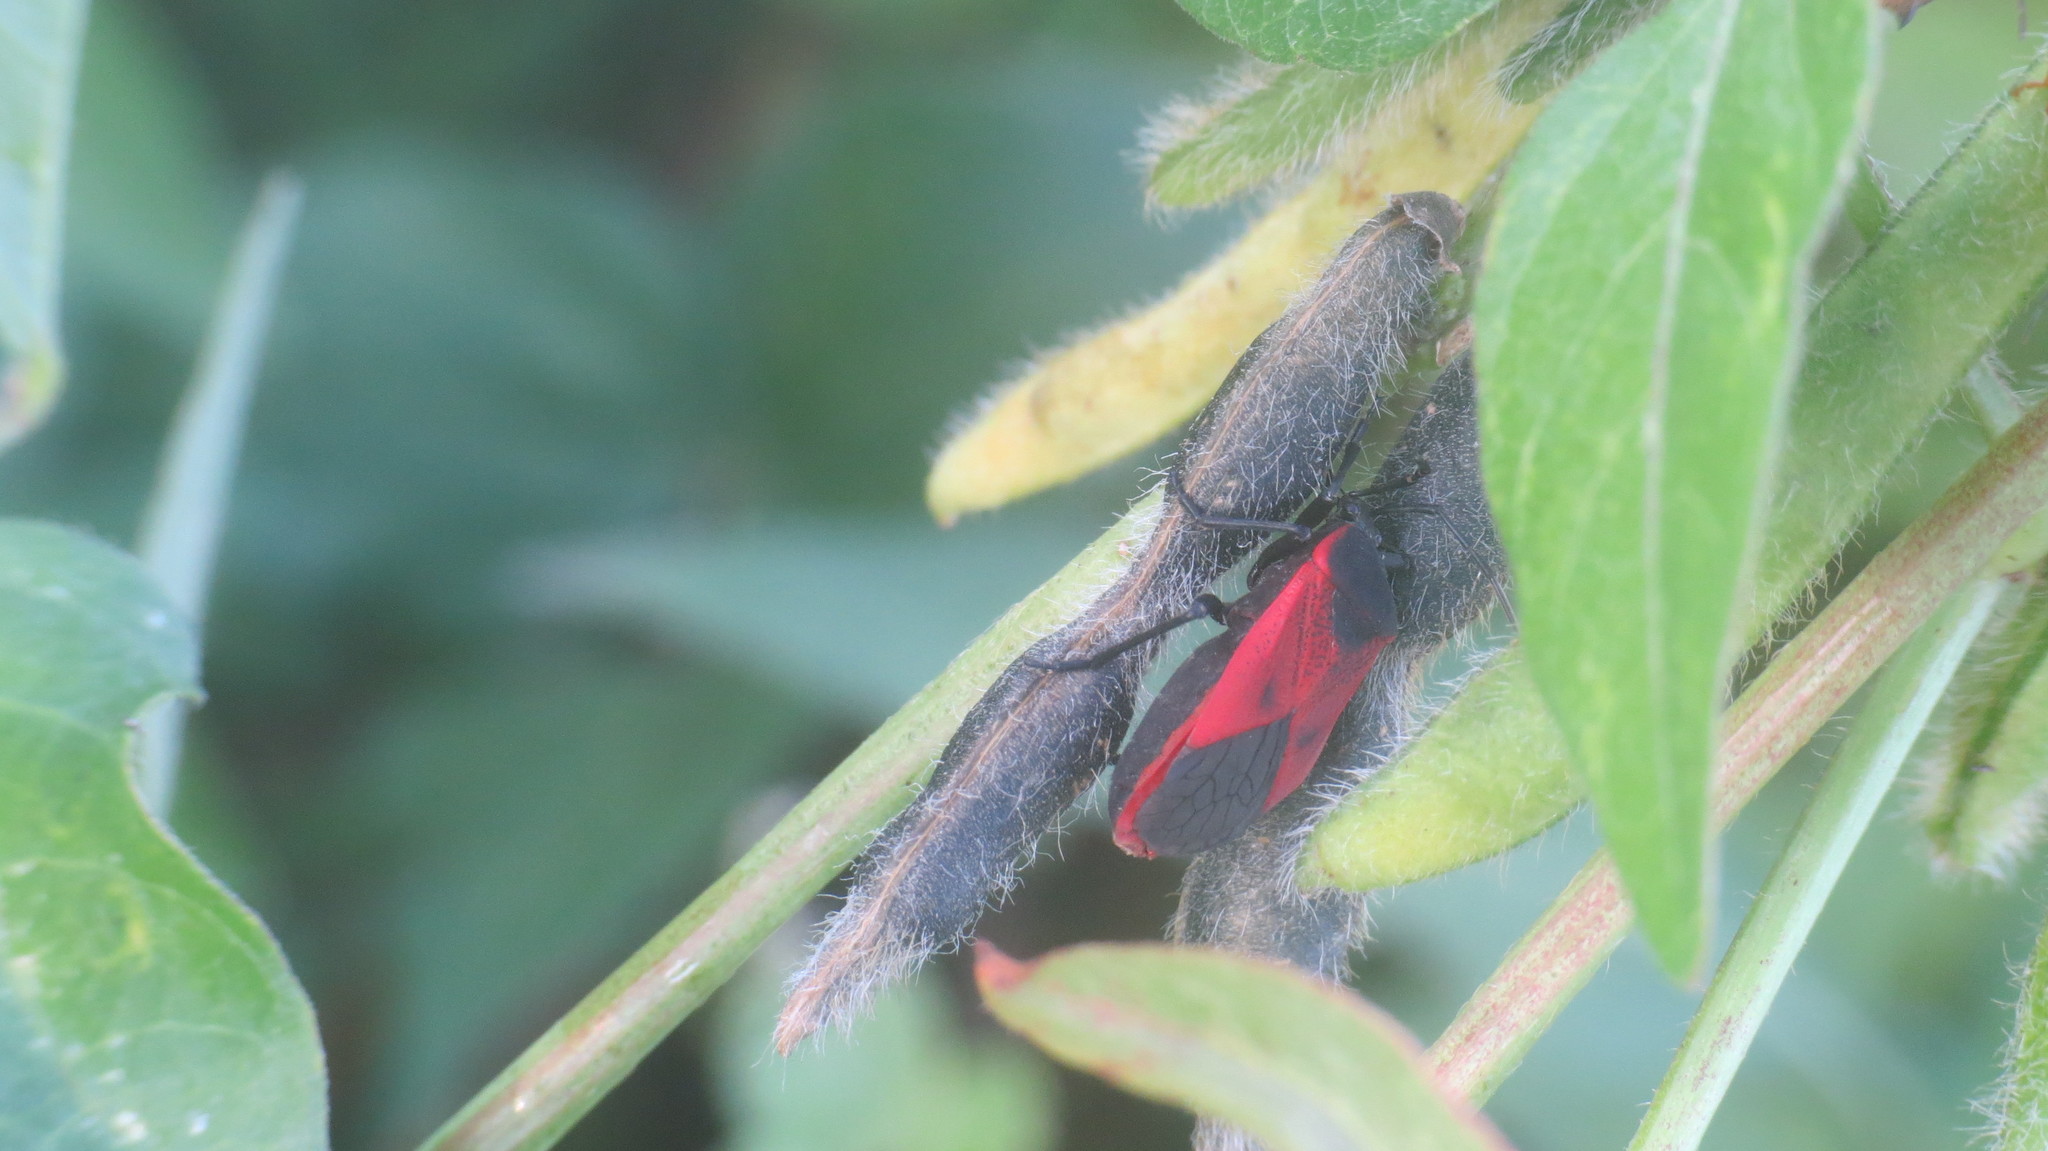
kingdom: Animalia
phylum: Arthropoda
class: Insecta
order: Hemiptera
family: Largidae
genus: Largus
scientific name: Largus rufipennis
